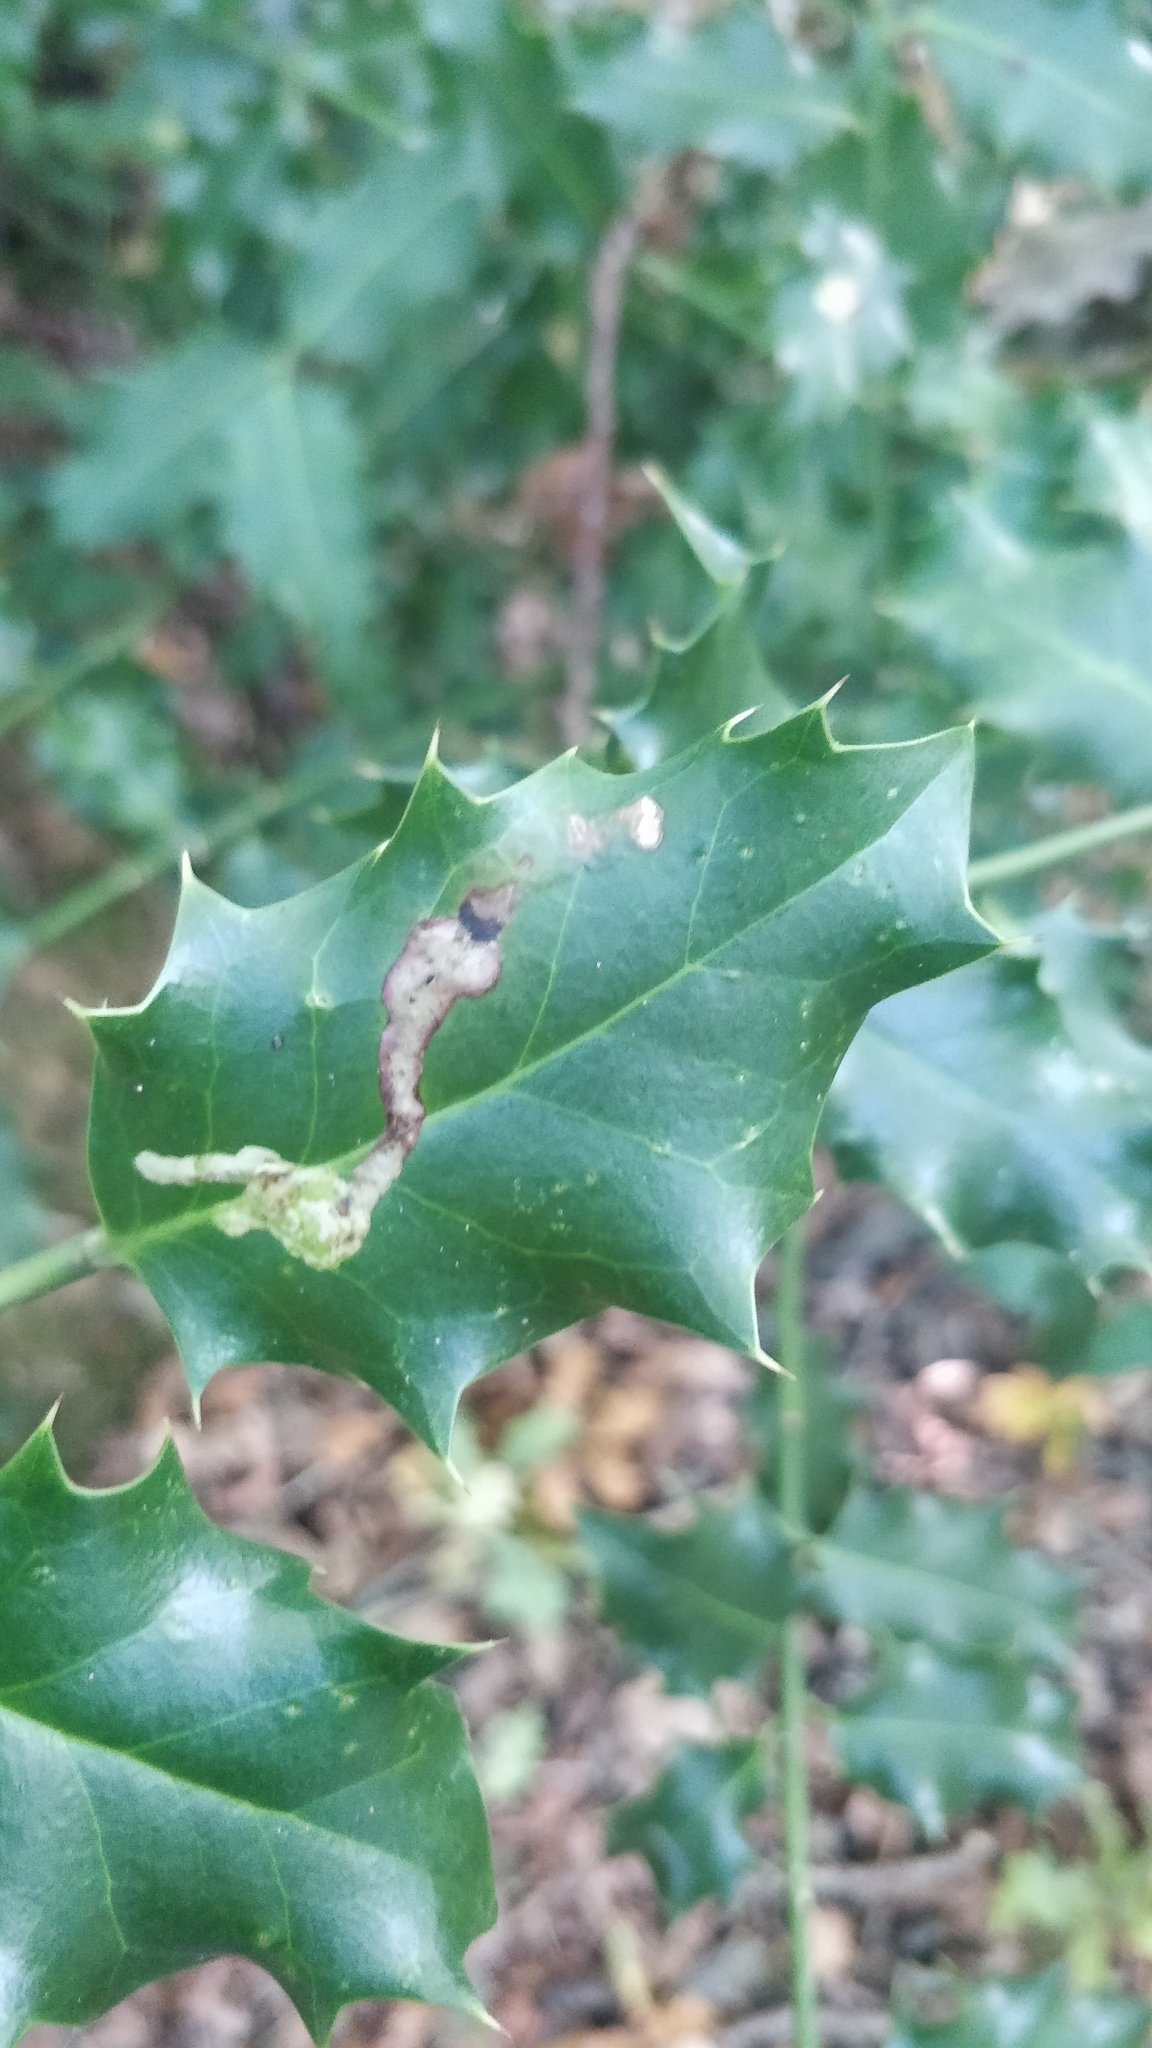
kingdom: Animalia
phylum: Arthropoda
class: Insecta
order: Diptera
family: Agromyzidae
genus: Phytomyza
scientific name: Phytomyza ilicis
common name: Holly leafminer
